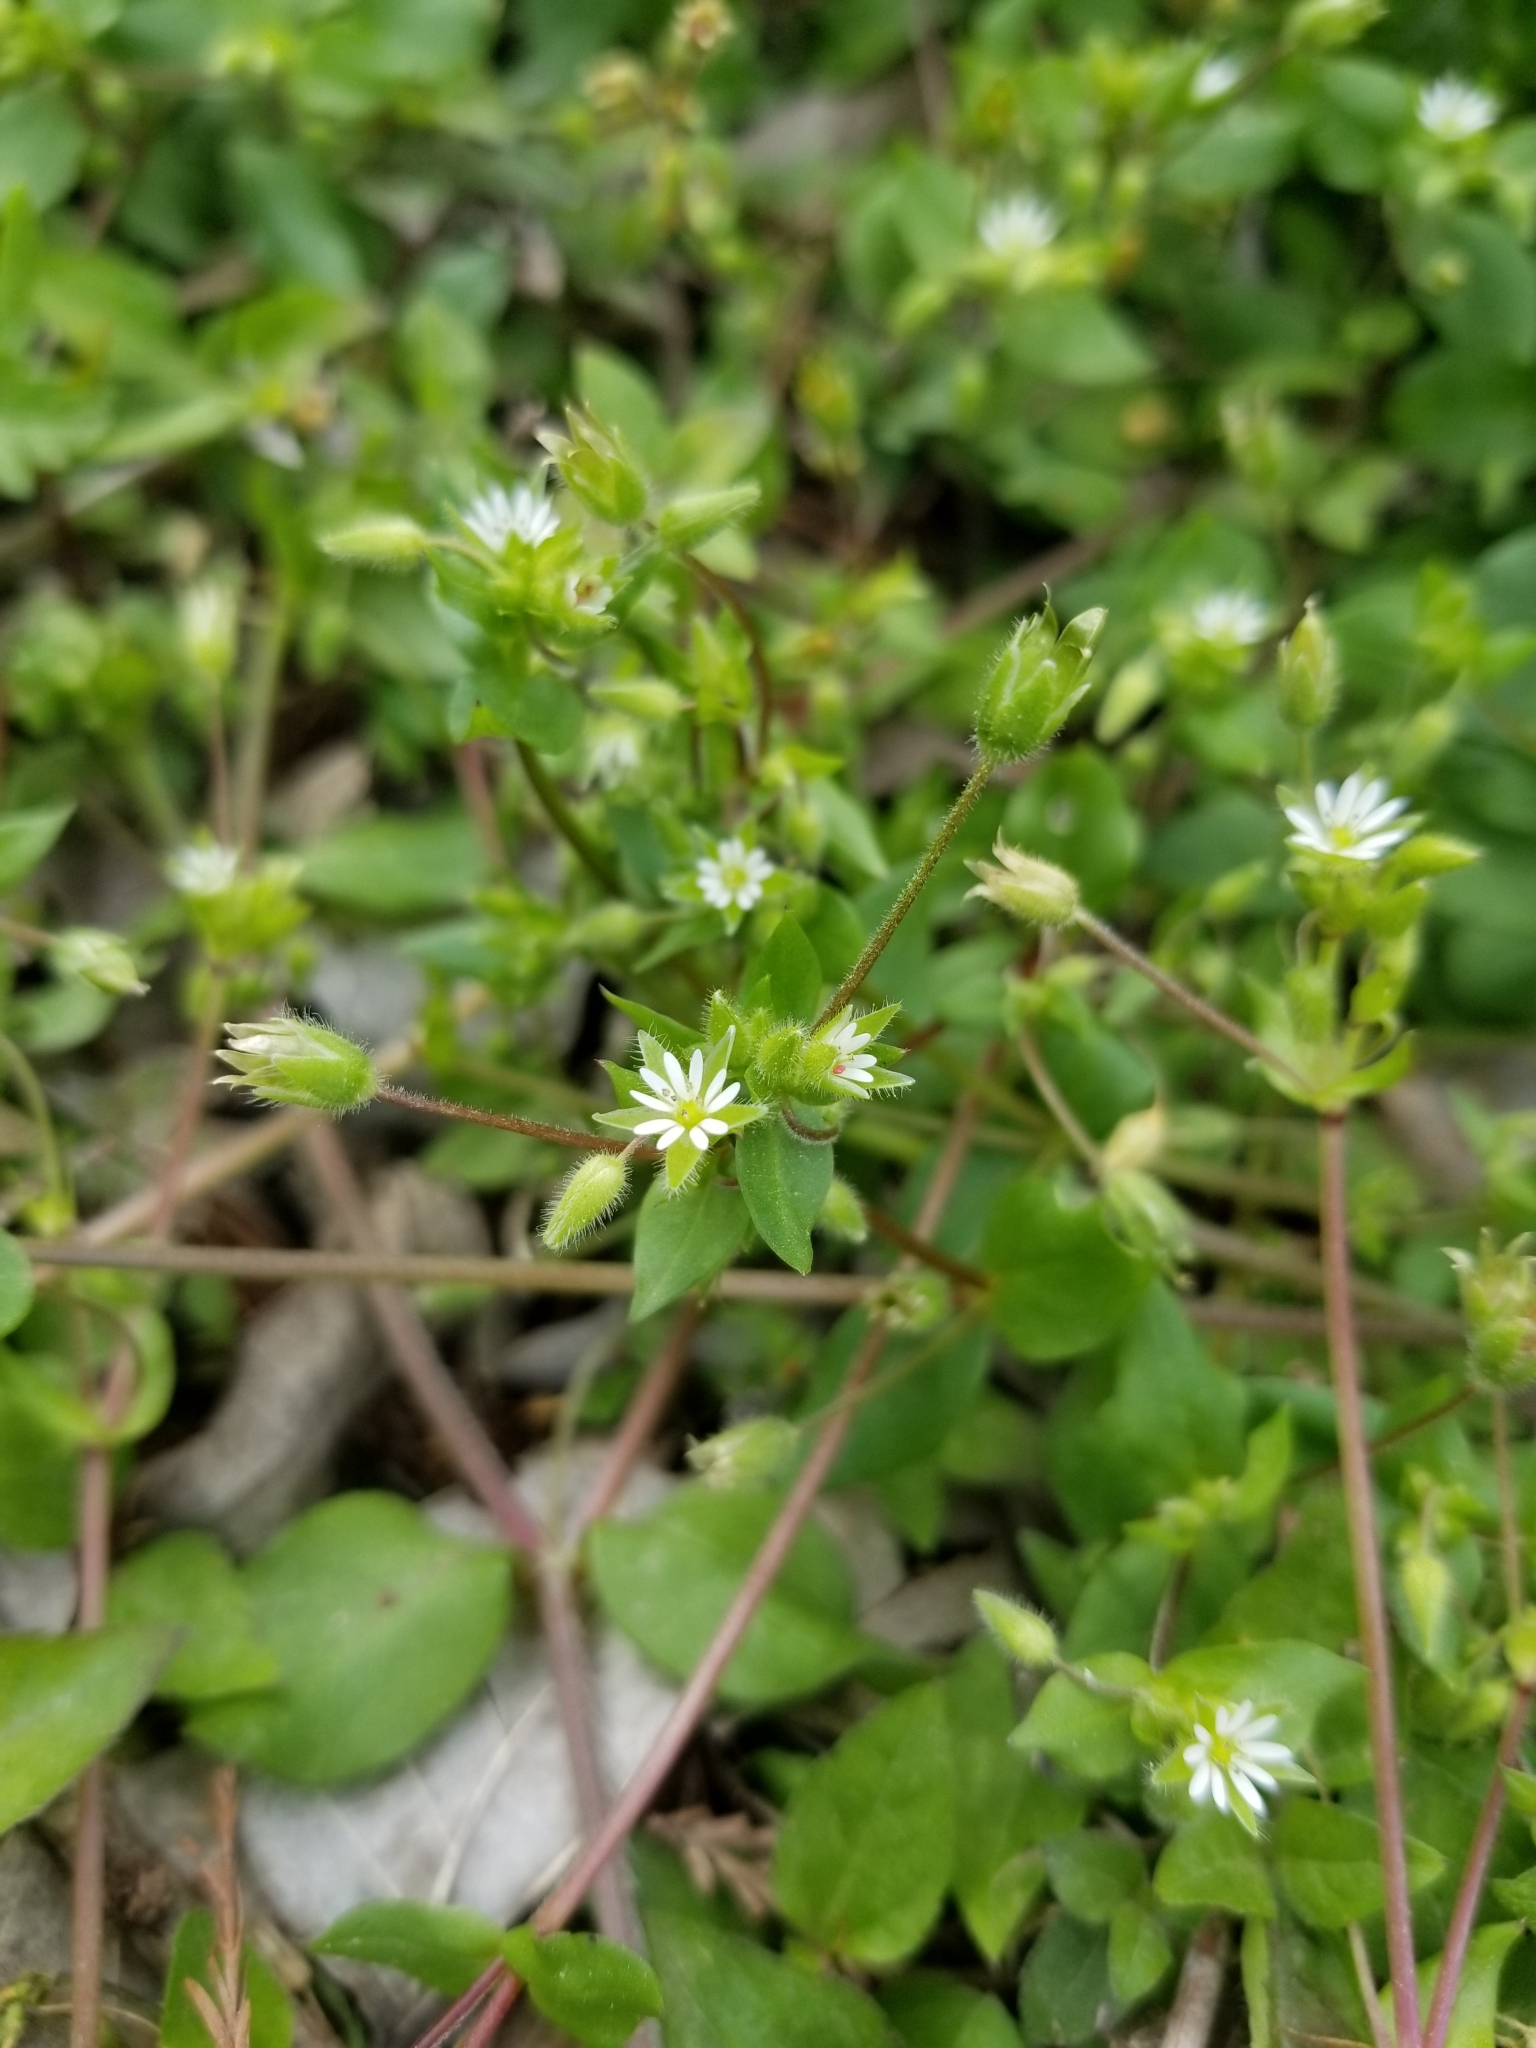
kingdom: Plantae
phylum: Tracheophyta
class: Magnoliopsida
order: Caryophyllales
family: Caryophyllaceae
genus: Stellaria
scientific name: Stellaria media
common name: Common chickweed
